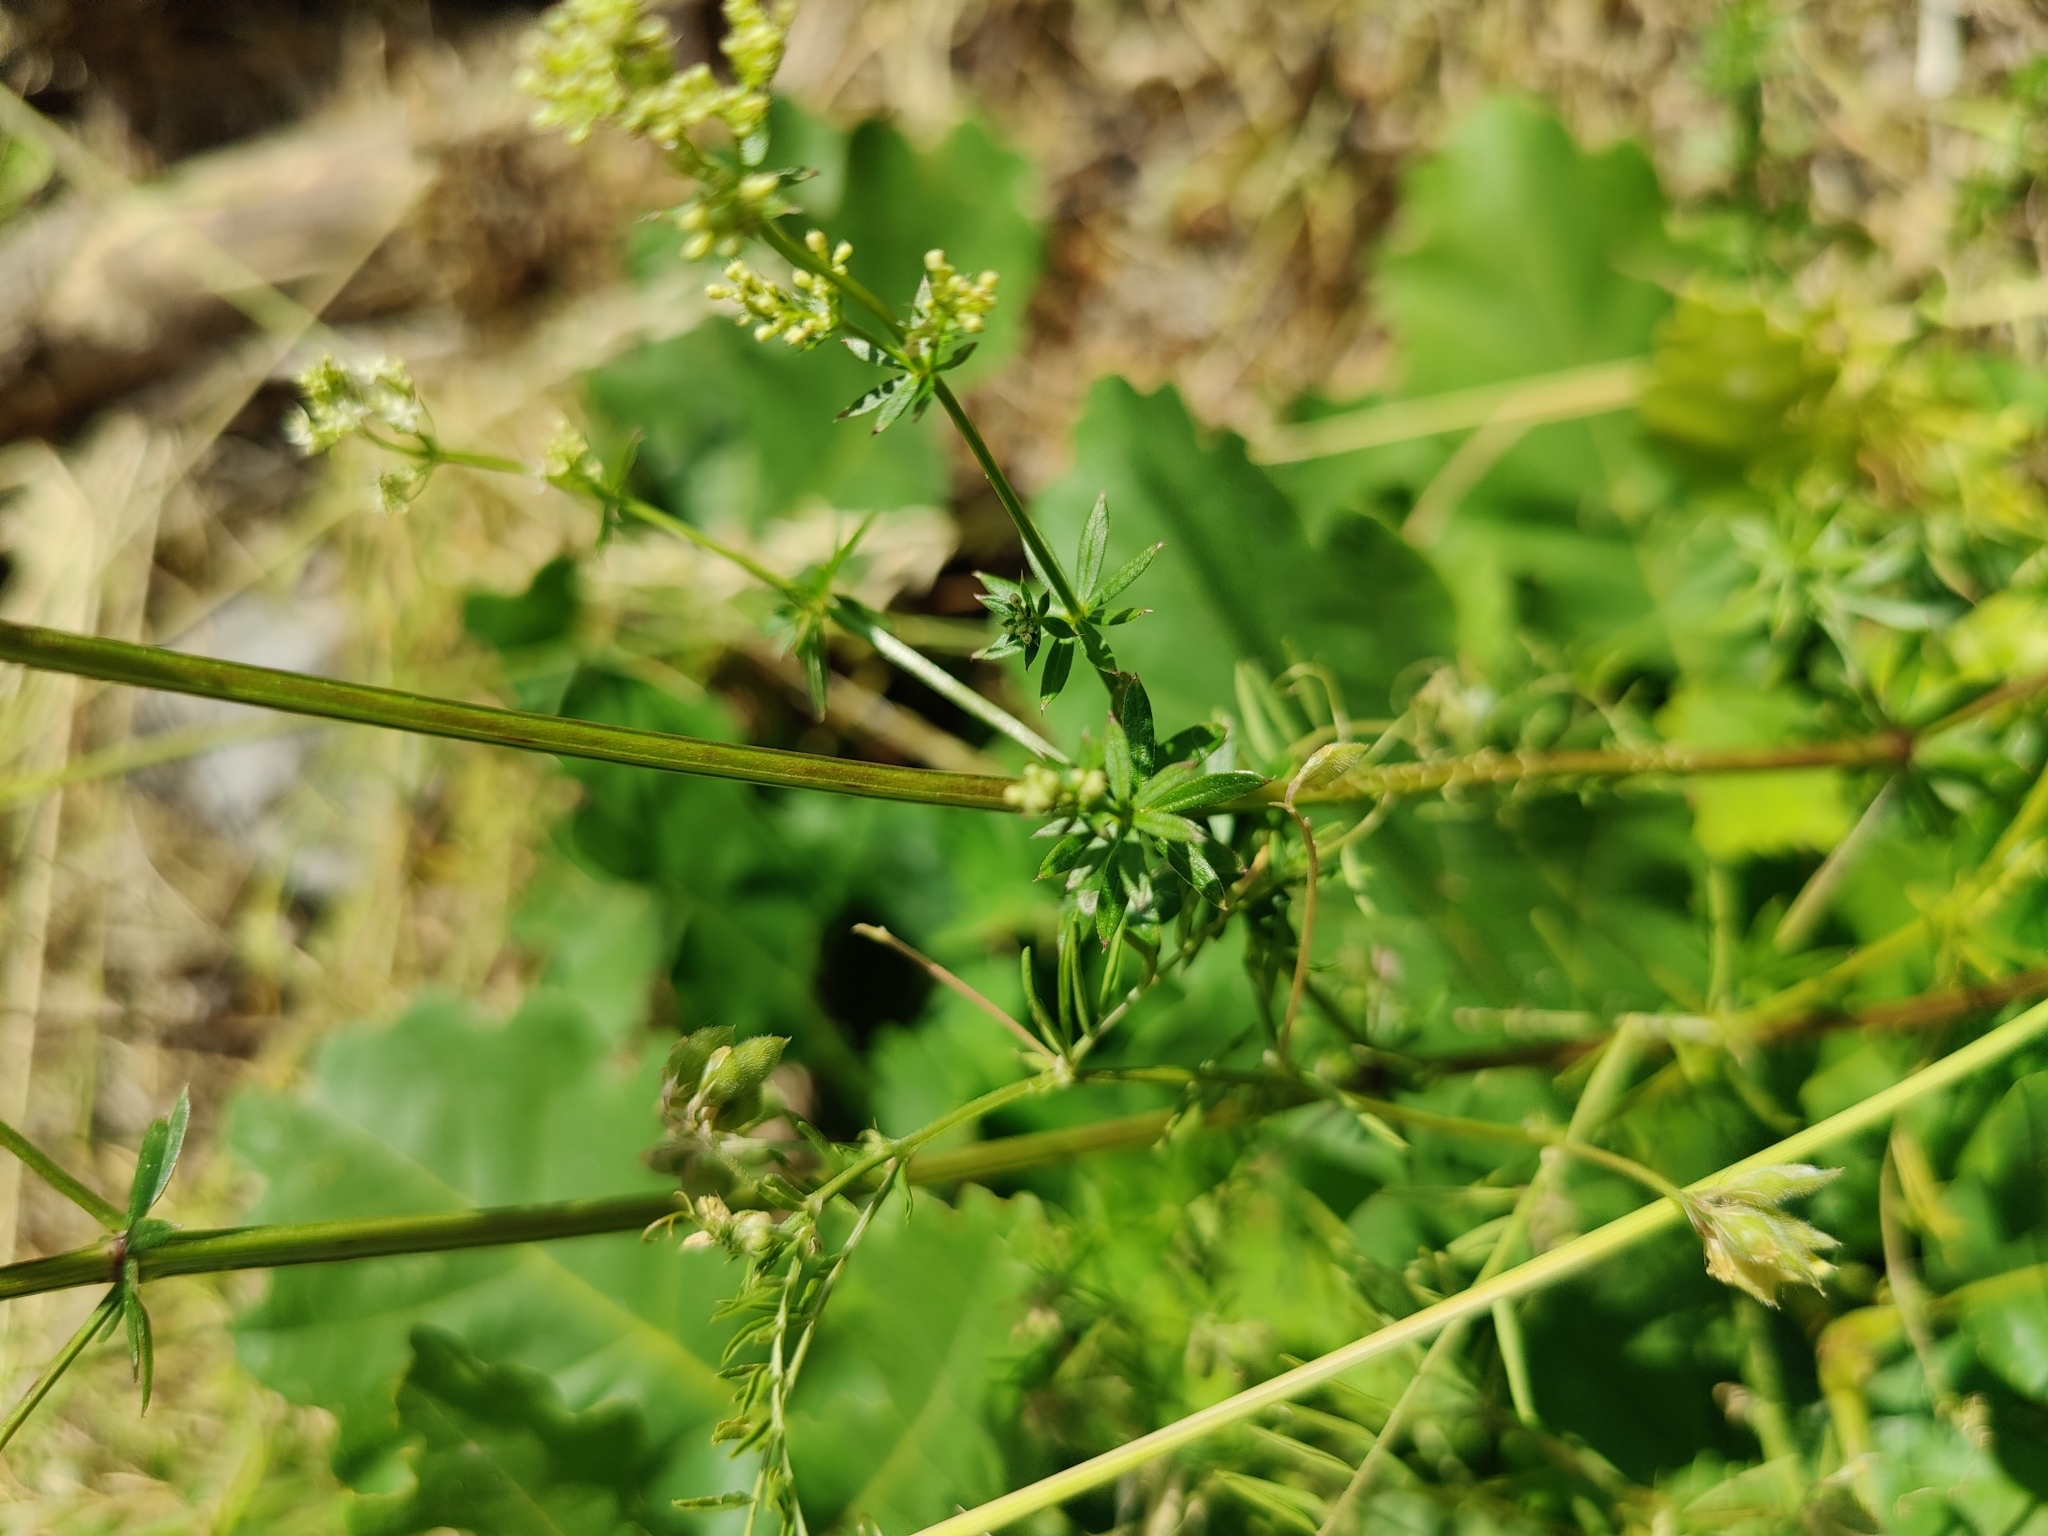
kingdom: Plantae
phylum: Tracheophyta
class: Magnoliopsida
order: Gentianales
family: Rubiaceae
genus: Galium
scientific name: Galium mollugo
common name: Hedge bedstraw
